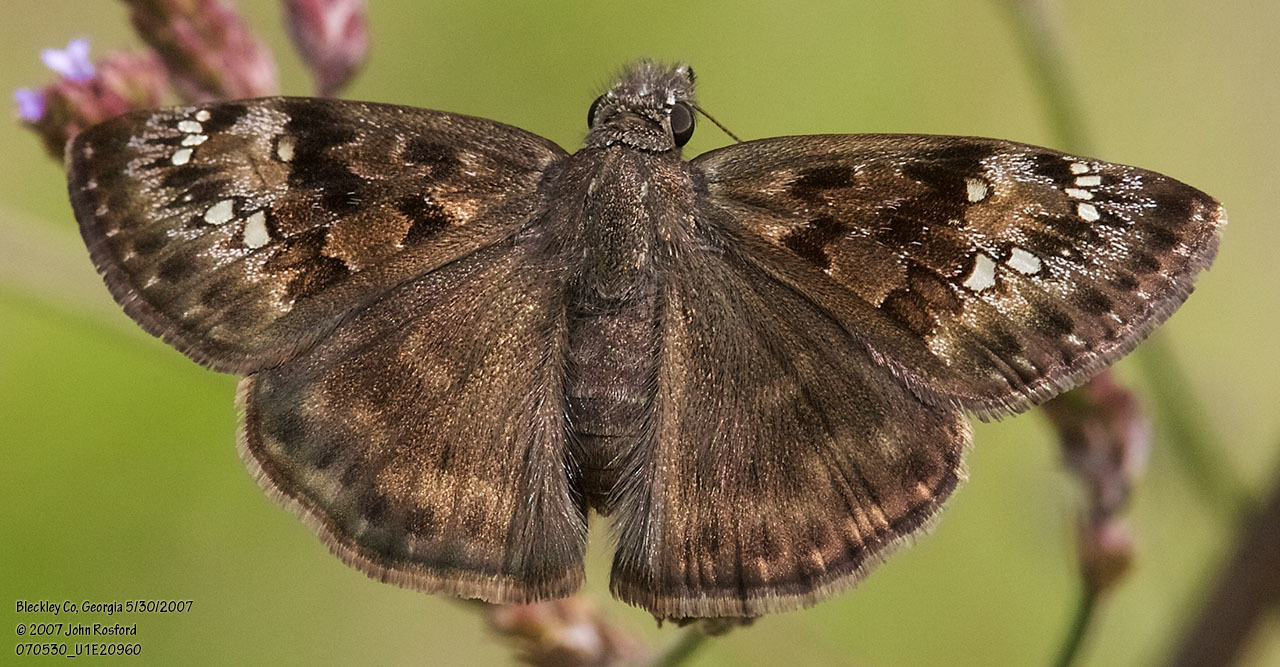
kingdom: Animalia
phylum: Arthropoda
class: Insecta
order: Lepidoptera
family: Hesperiidae
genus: Erynnis
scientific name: Erynnis horatius
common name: Horace's duskywing
